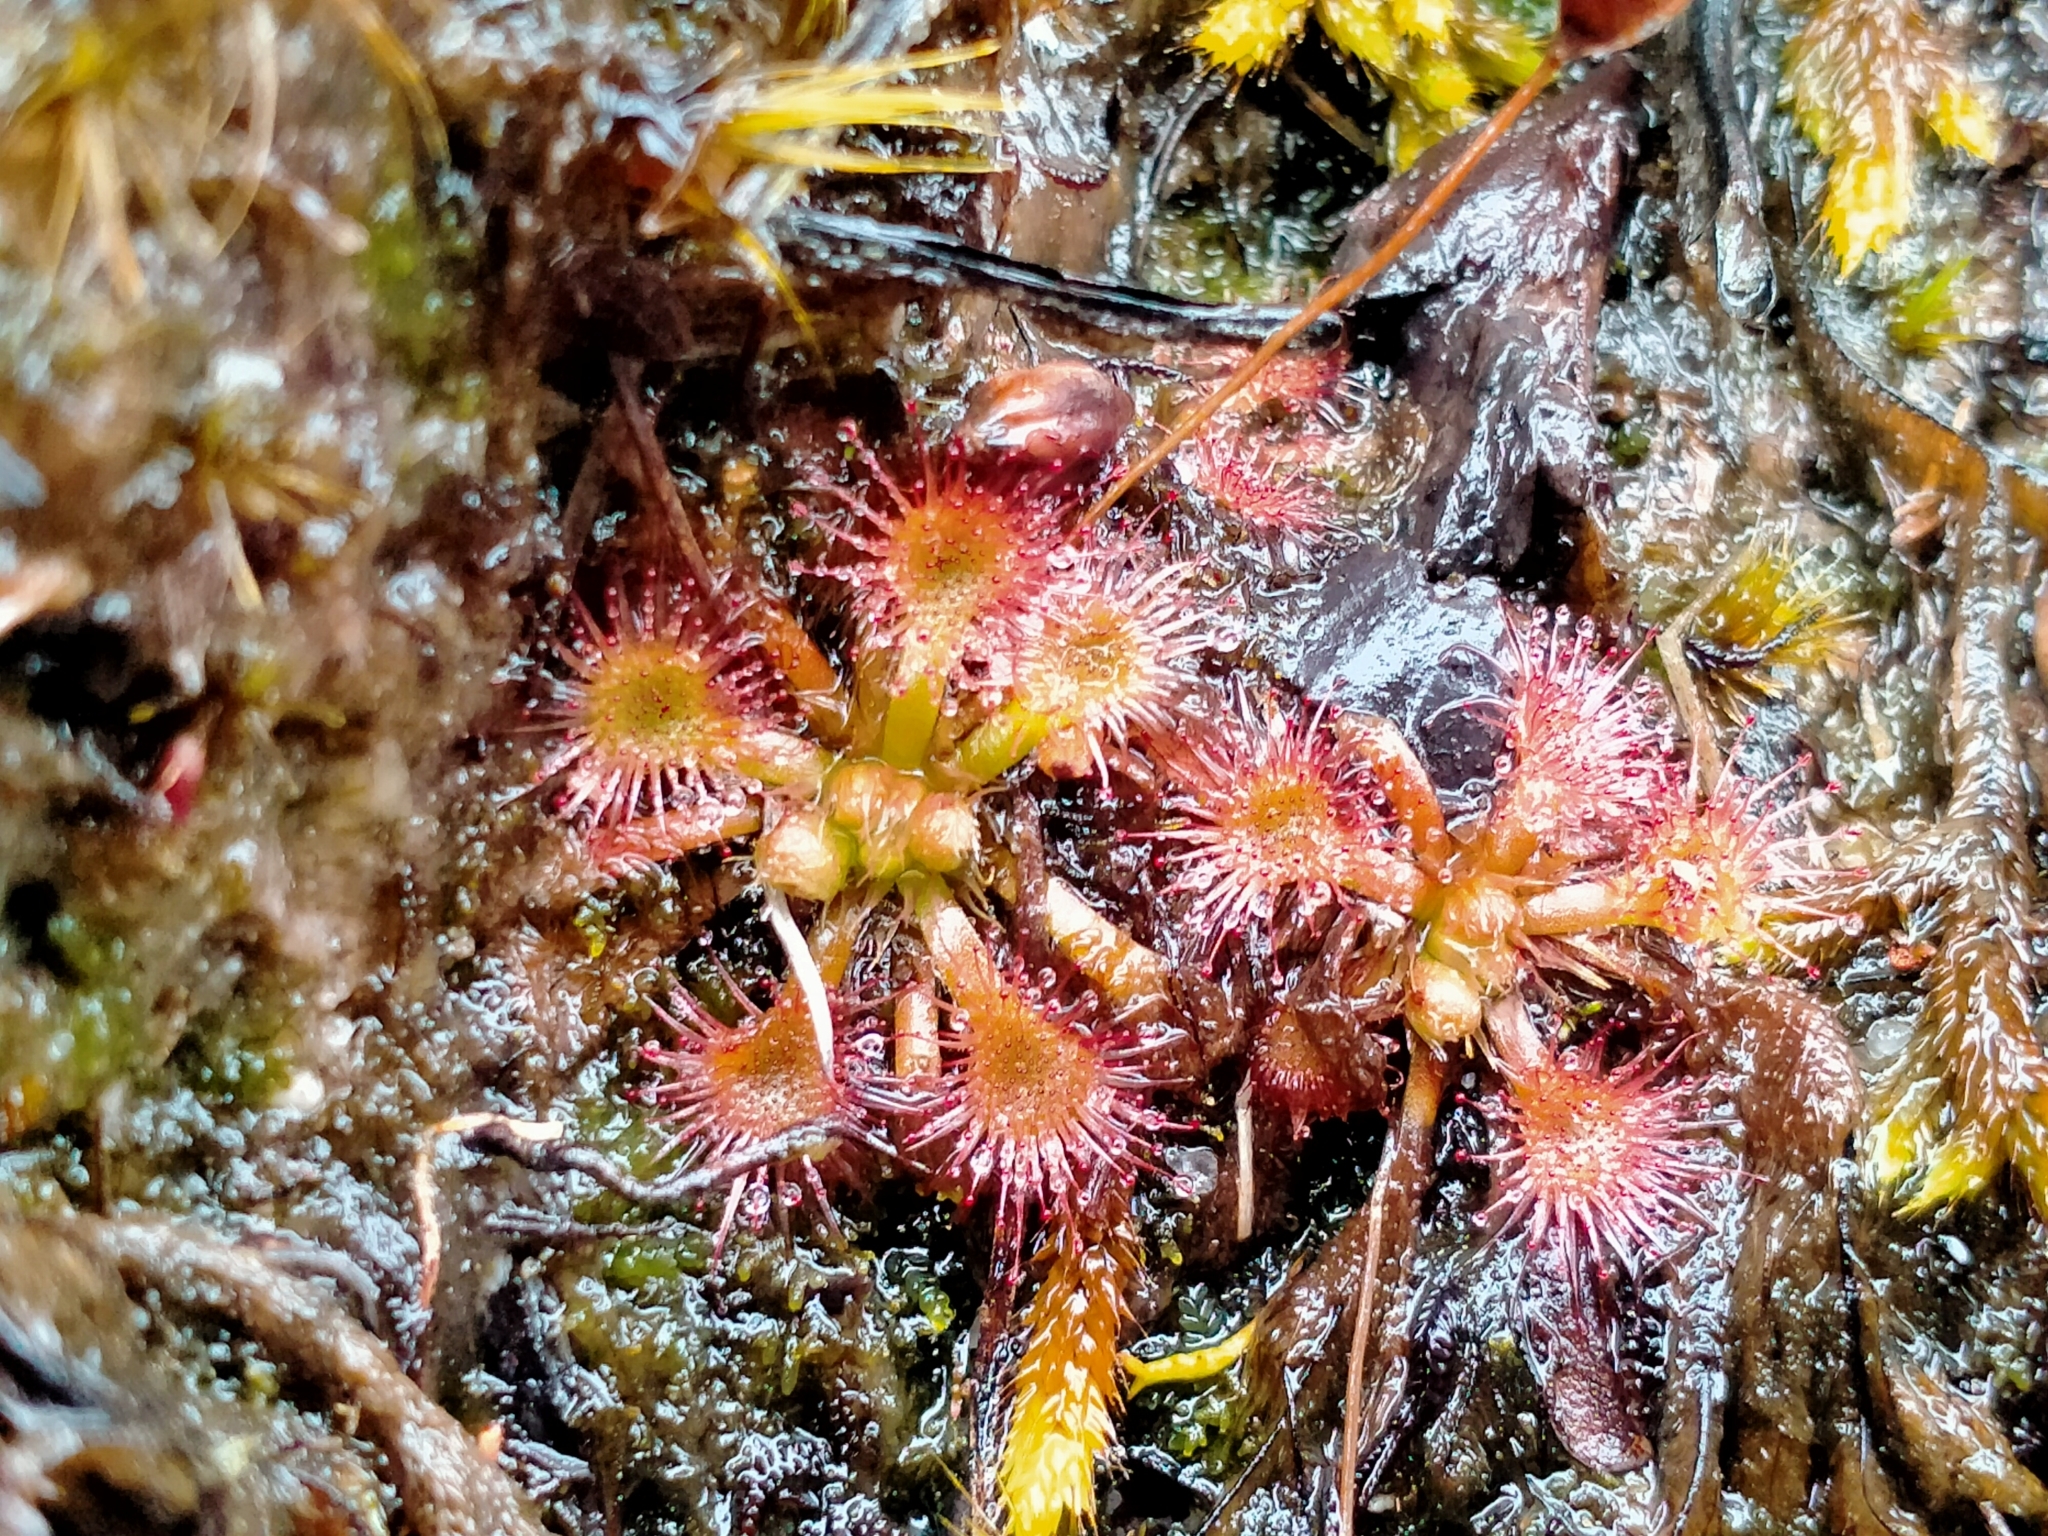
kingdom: Plantae
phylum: Tracheophyta
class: Magnoliopsida
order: Caryophyllales
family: Droseraceae
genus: Drosera
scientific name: Drosera spatulata
